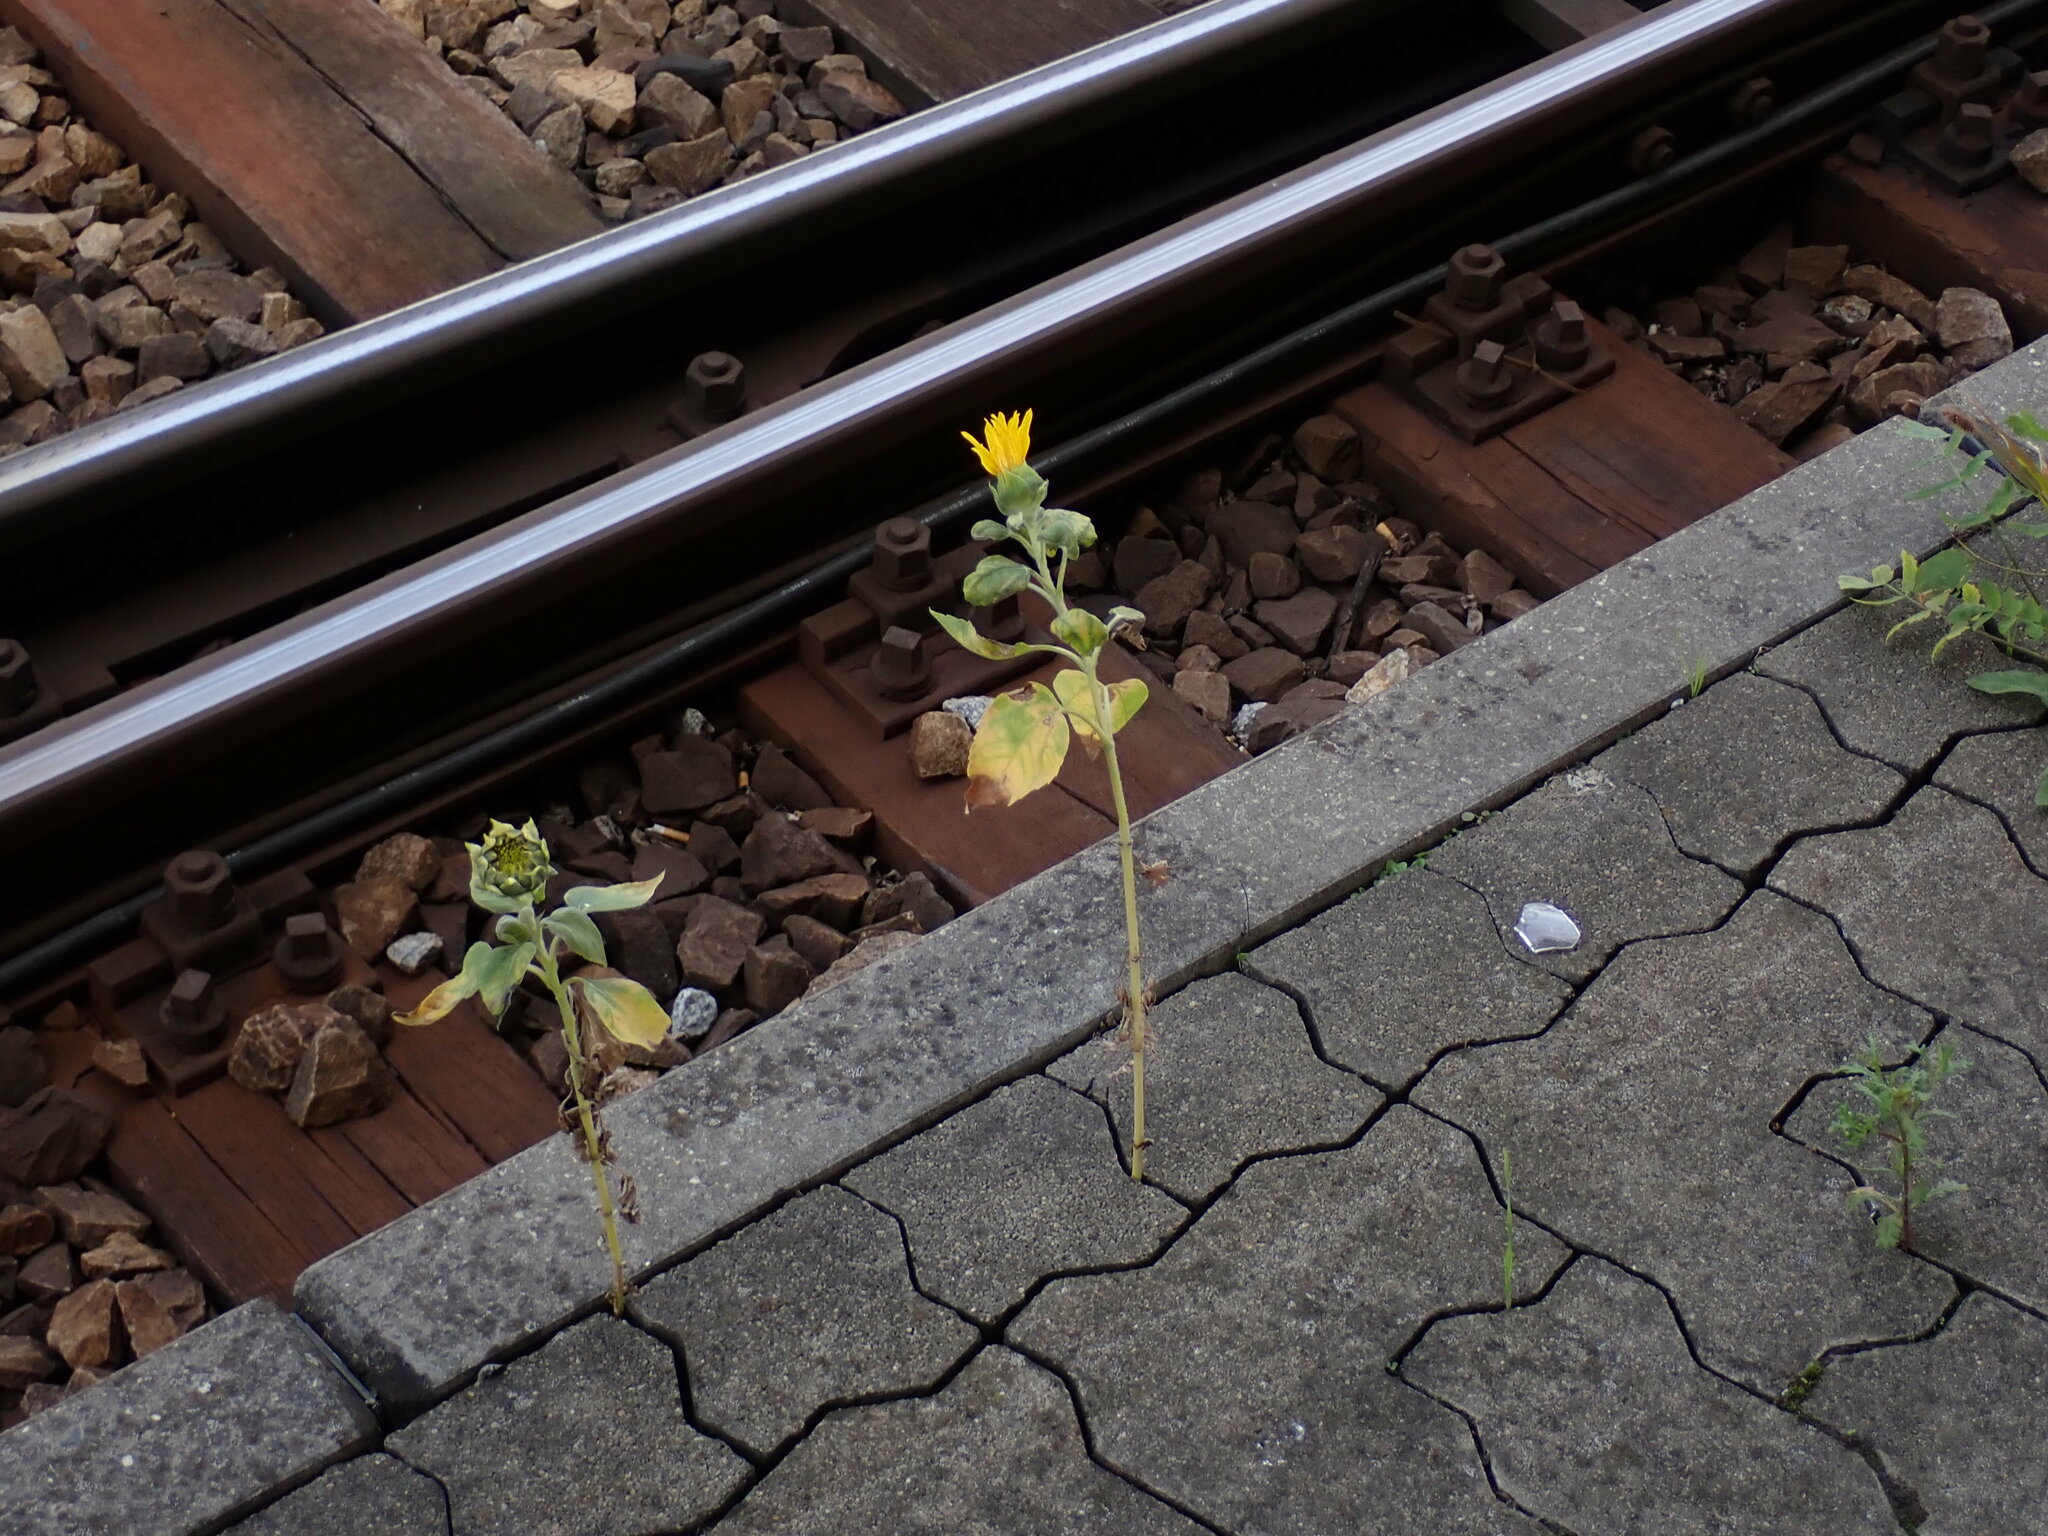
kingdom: Plantae
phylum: Tracheophyta
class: Magnoliopsida
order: Asterales
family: Asteraceae
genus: Helianthus
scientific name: Helianthus annuus
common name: Sunflower
